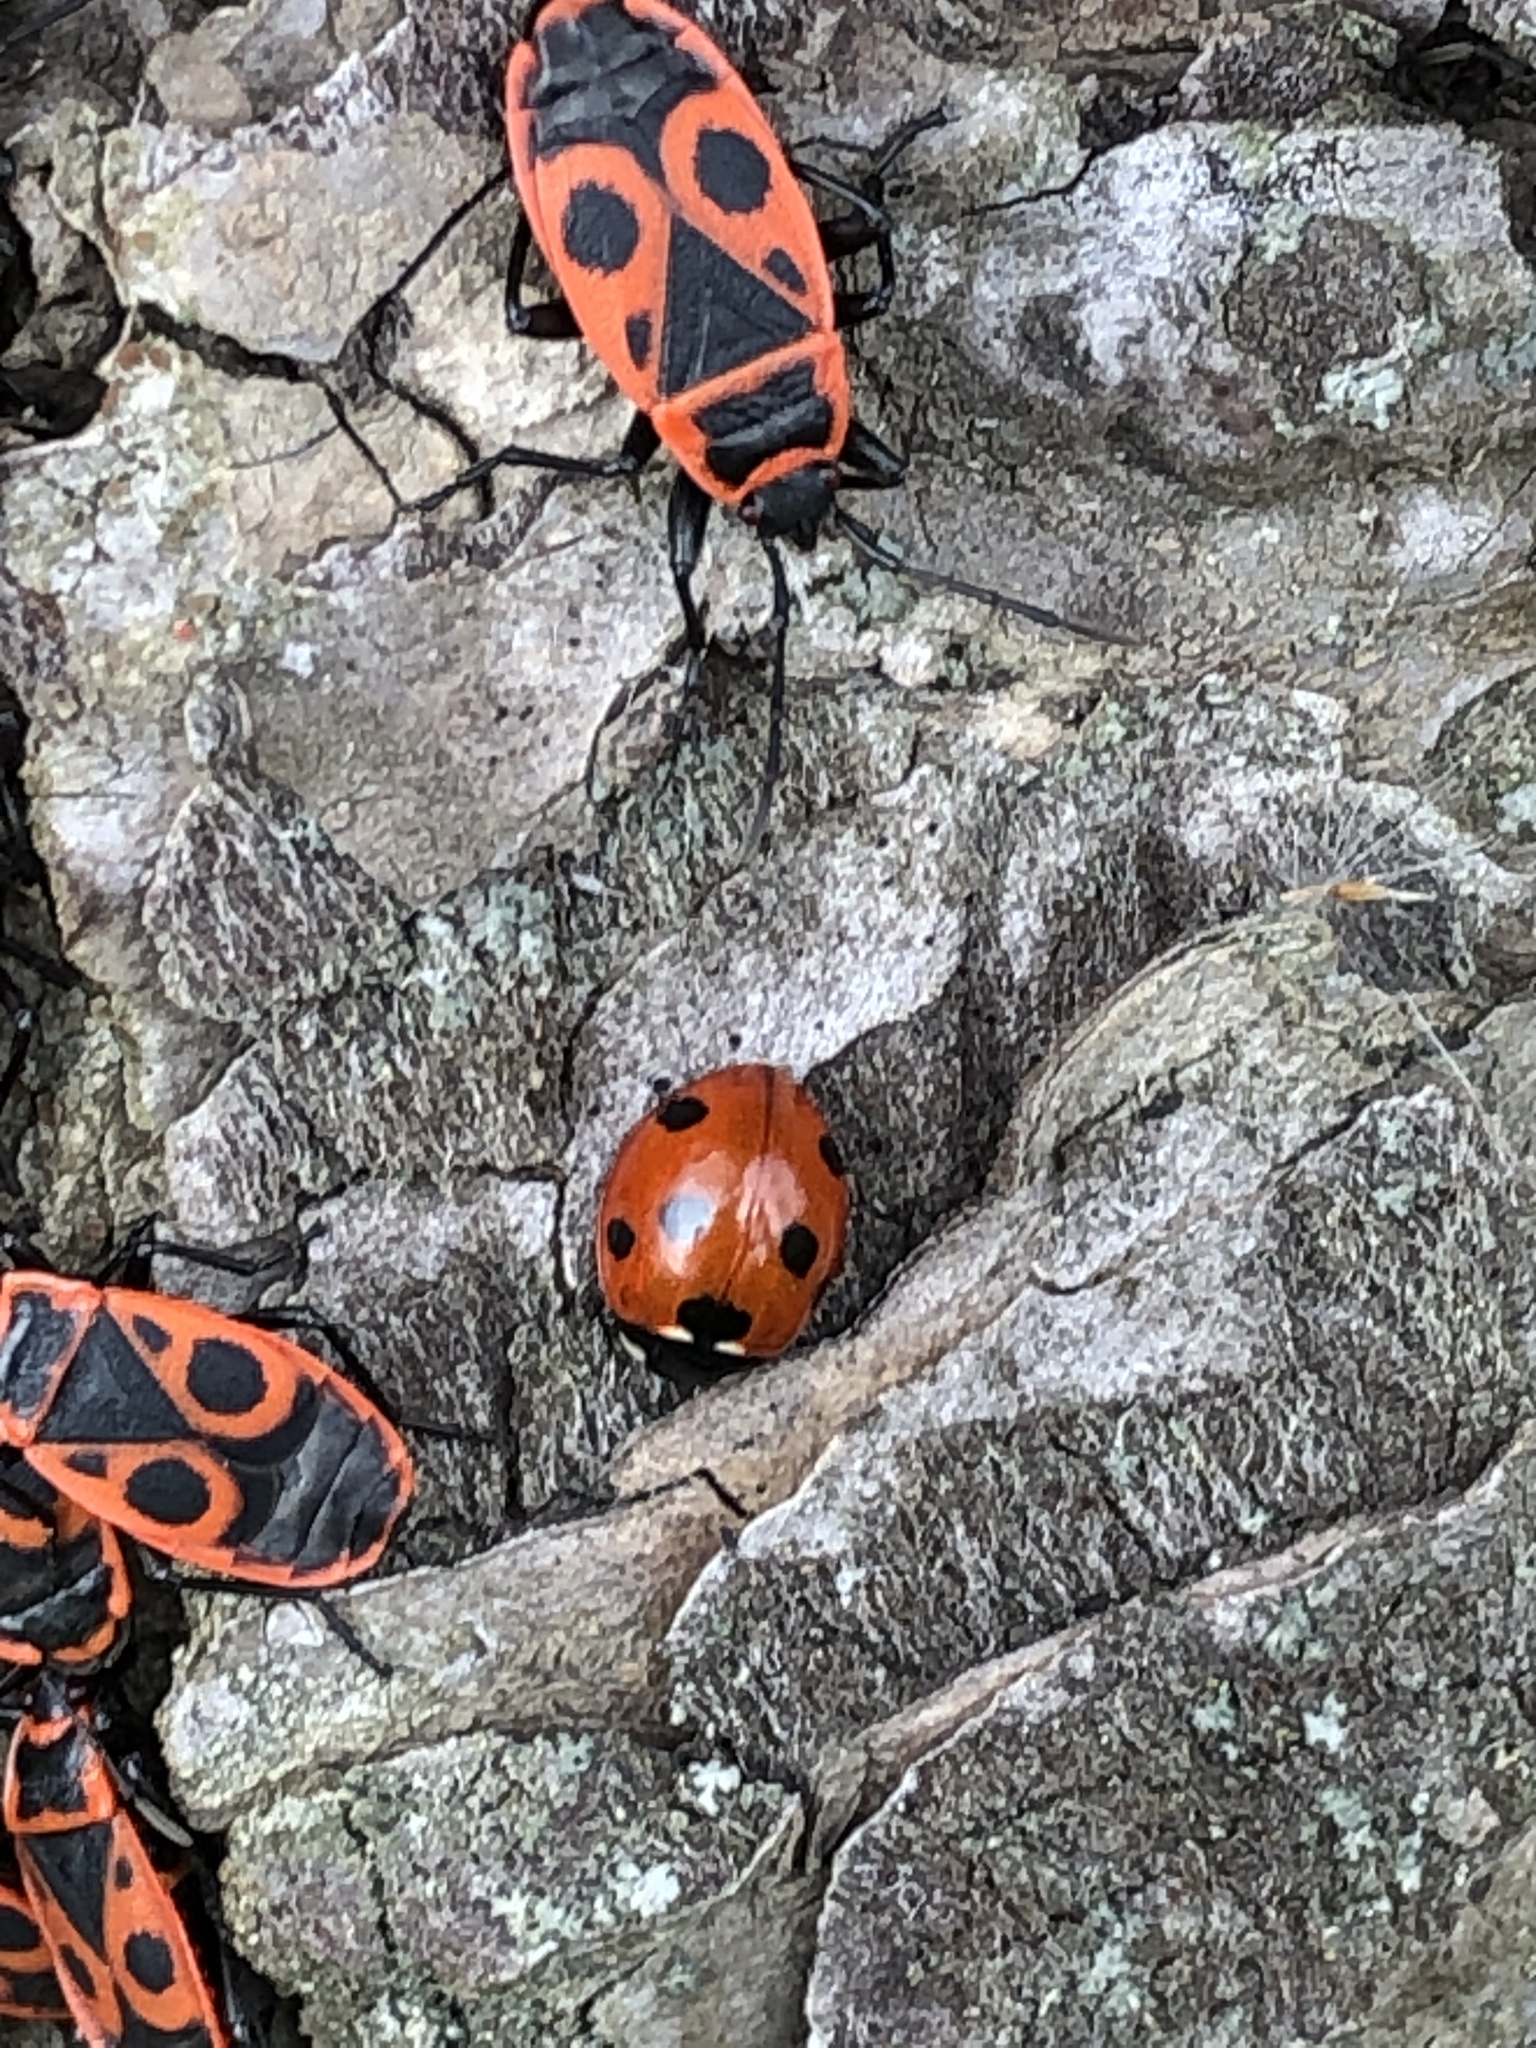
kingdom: Animalia
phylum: Arthropoda
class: Insecta
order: Coleoptera
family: Coccinellidae
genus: Coccinella
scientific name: Coccinella septempunctata
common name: Sevenspotted lady beetle
